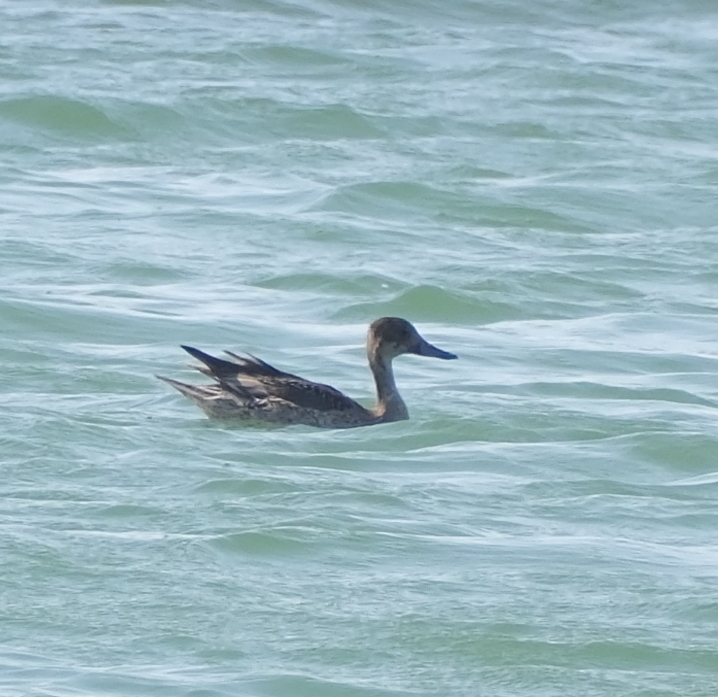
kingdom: Animalia
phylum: Chordata
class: Aves
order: Anseriformes
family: Anatidae
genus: Anas
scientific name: Anas acuta
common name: Northern pintail
